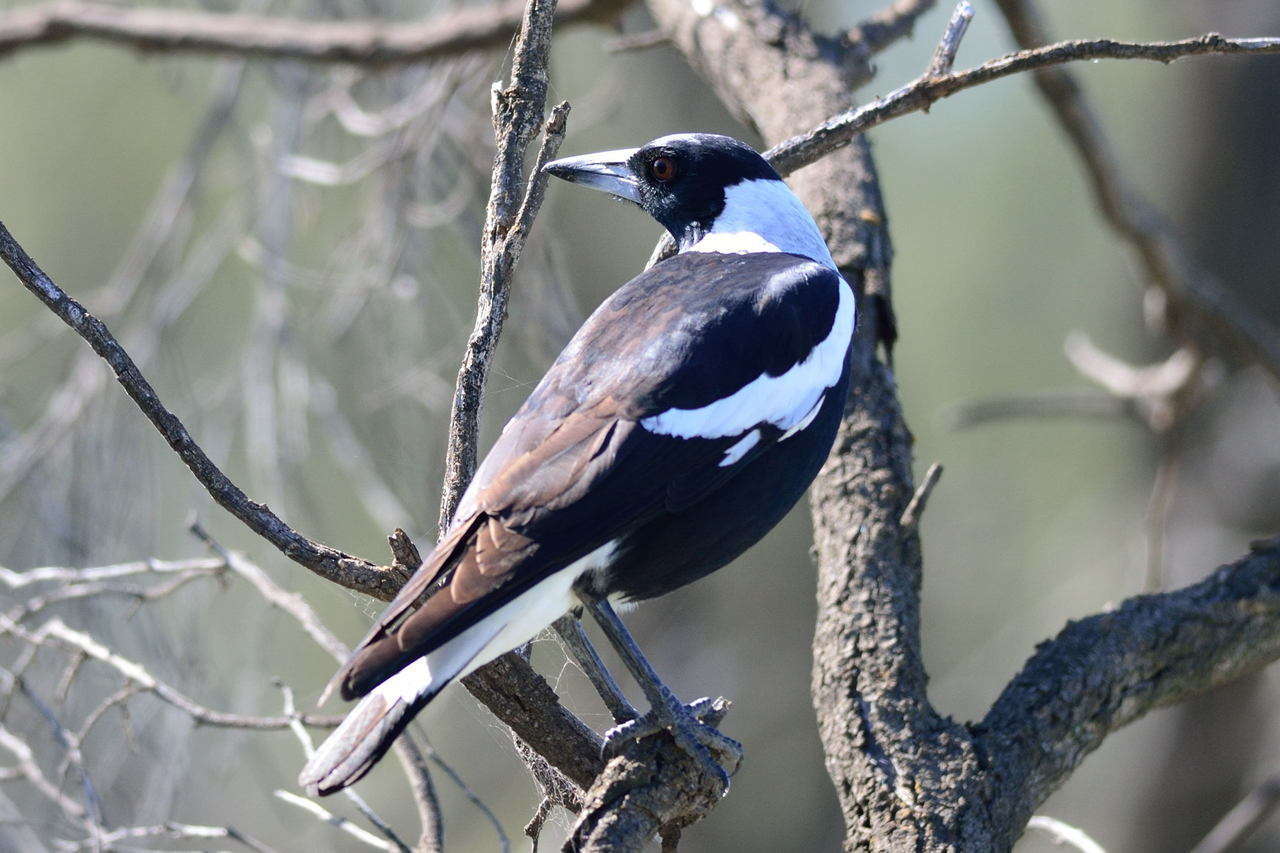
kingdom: Animalia
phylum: Chordata
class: Aves
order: Passeriformes
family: Cracticidae
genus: Gymnorhina
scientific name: Gymnorhina tibicen
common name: Australian magpie
